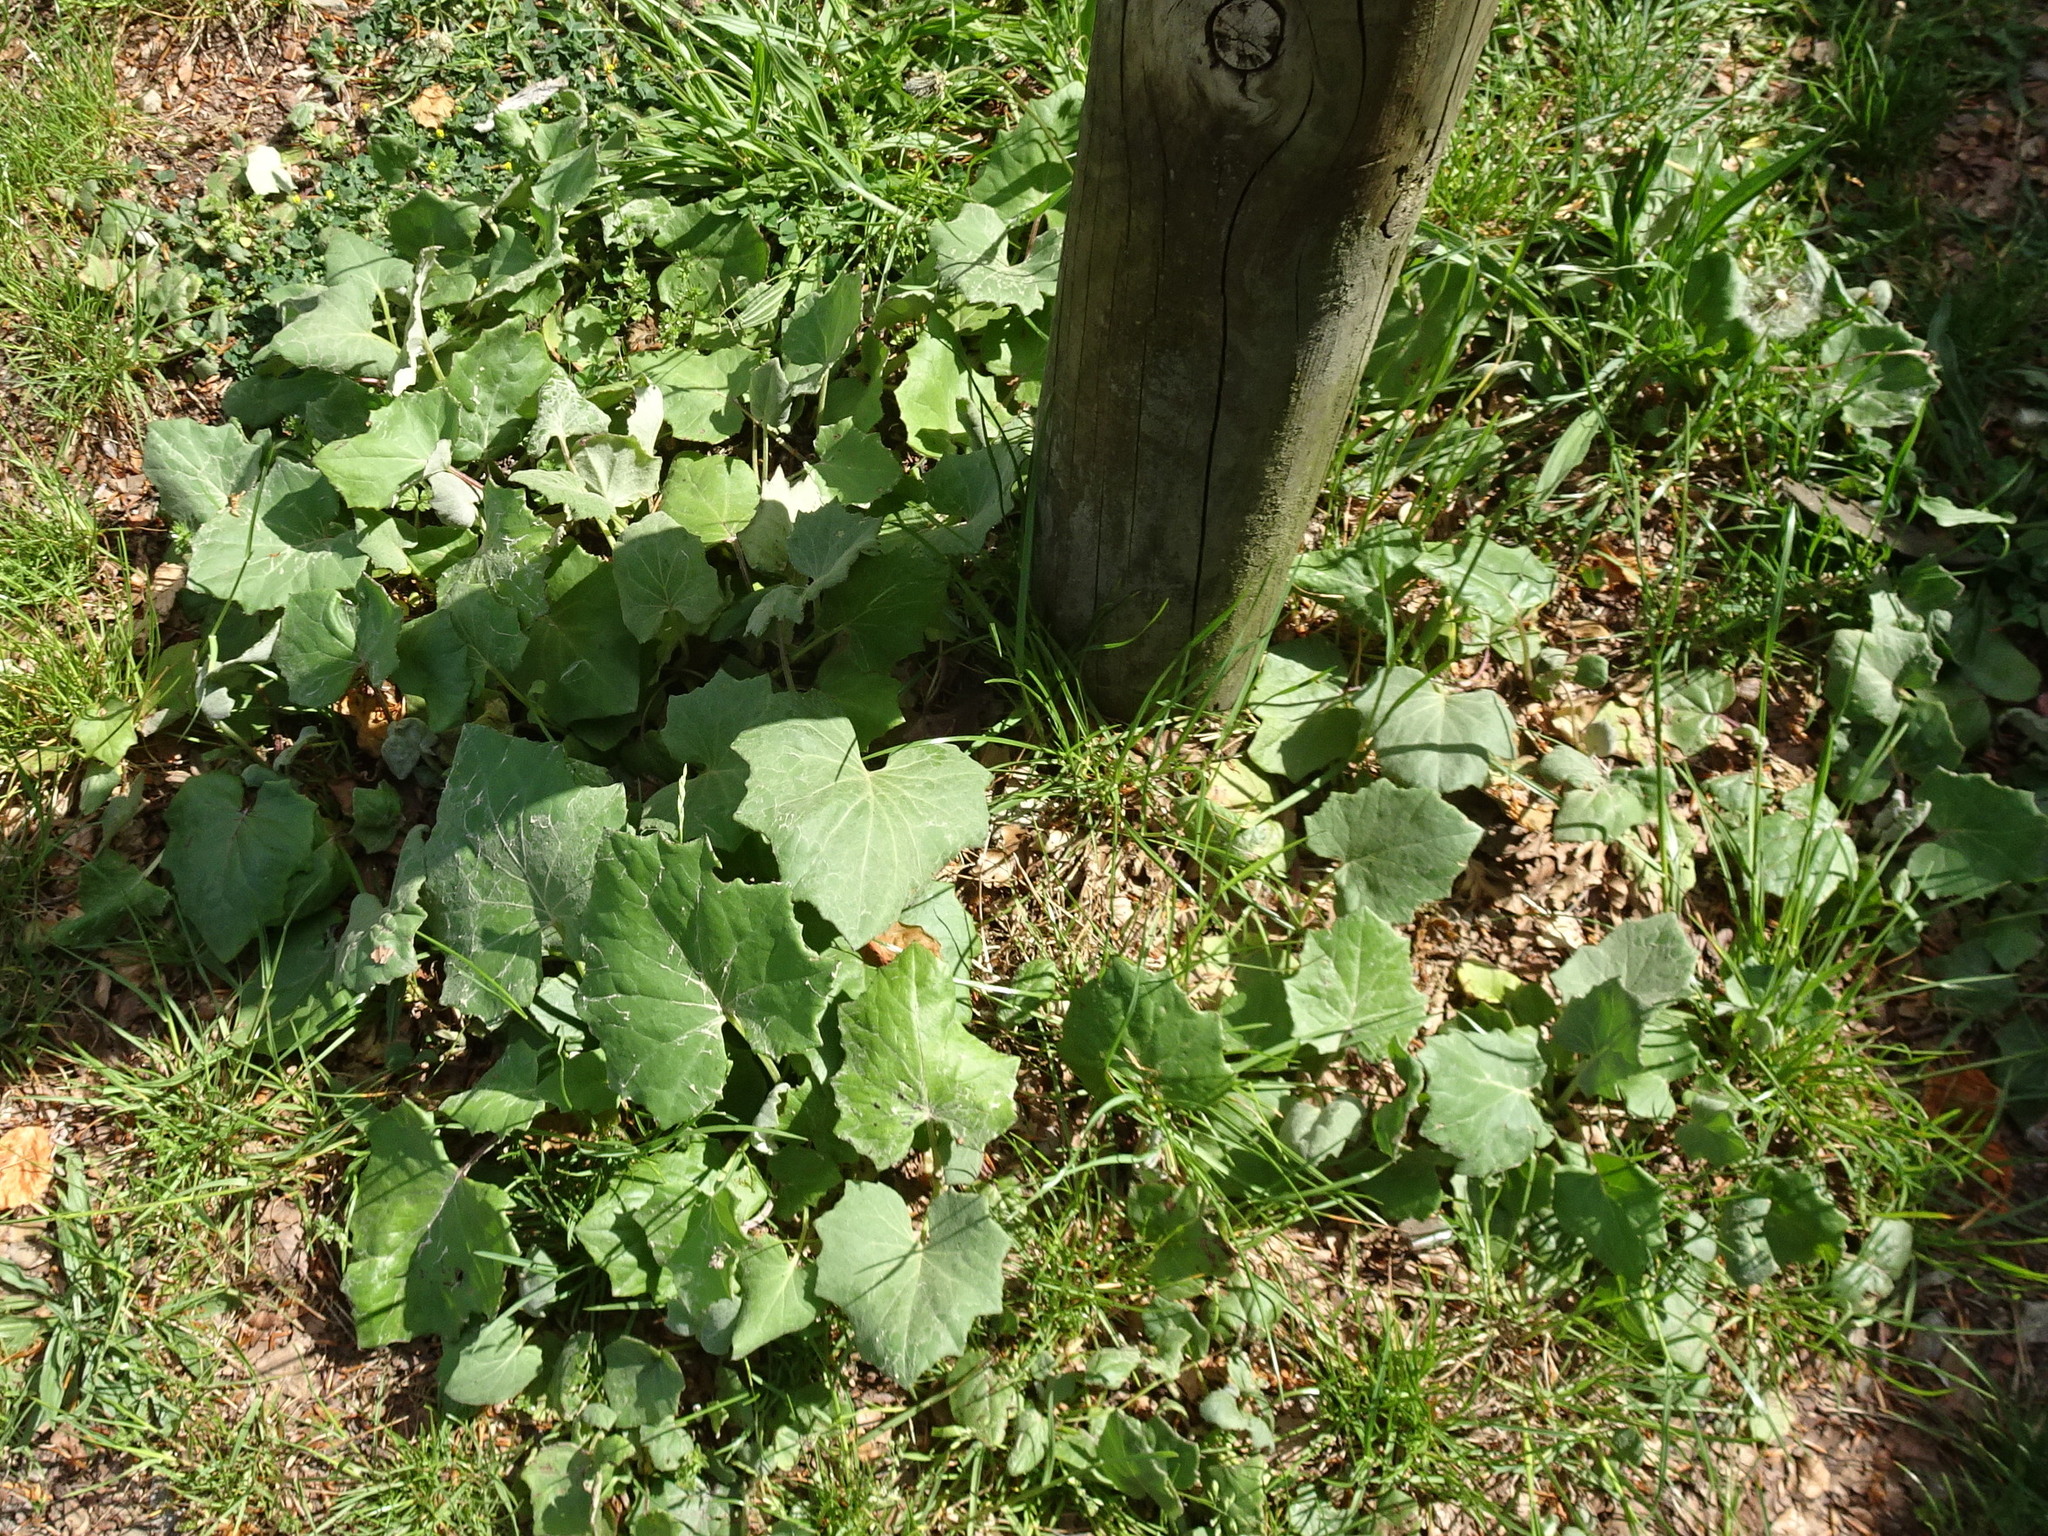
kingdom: Plantae
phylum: Tracheophyta
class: Magnoliopsida
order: Asterales
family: Asteraceae
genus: Tussilago
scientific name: Tussilago farfara
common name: Coltsfoot
